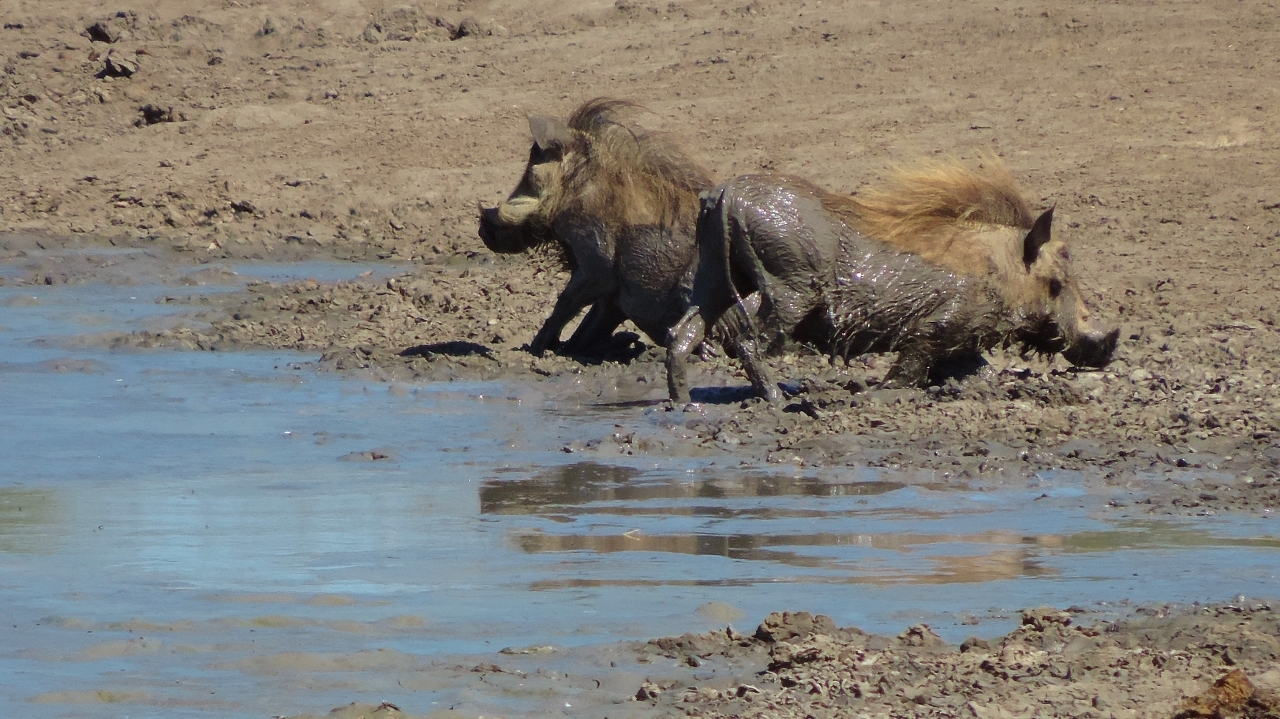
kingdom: Animalia
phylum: Chordata
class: Mammalia
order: Artiodactyla
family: Suidae
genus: Phacochoerus
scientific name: Phacochoerus africanus
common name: Common warthog
